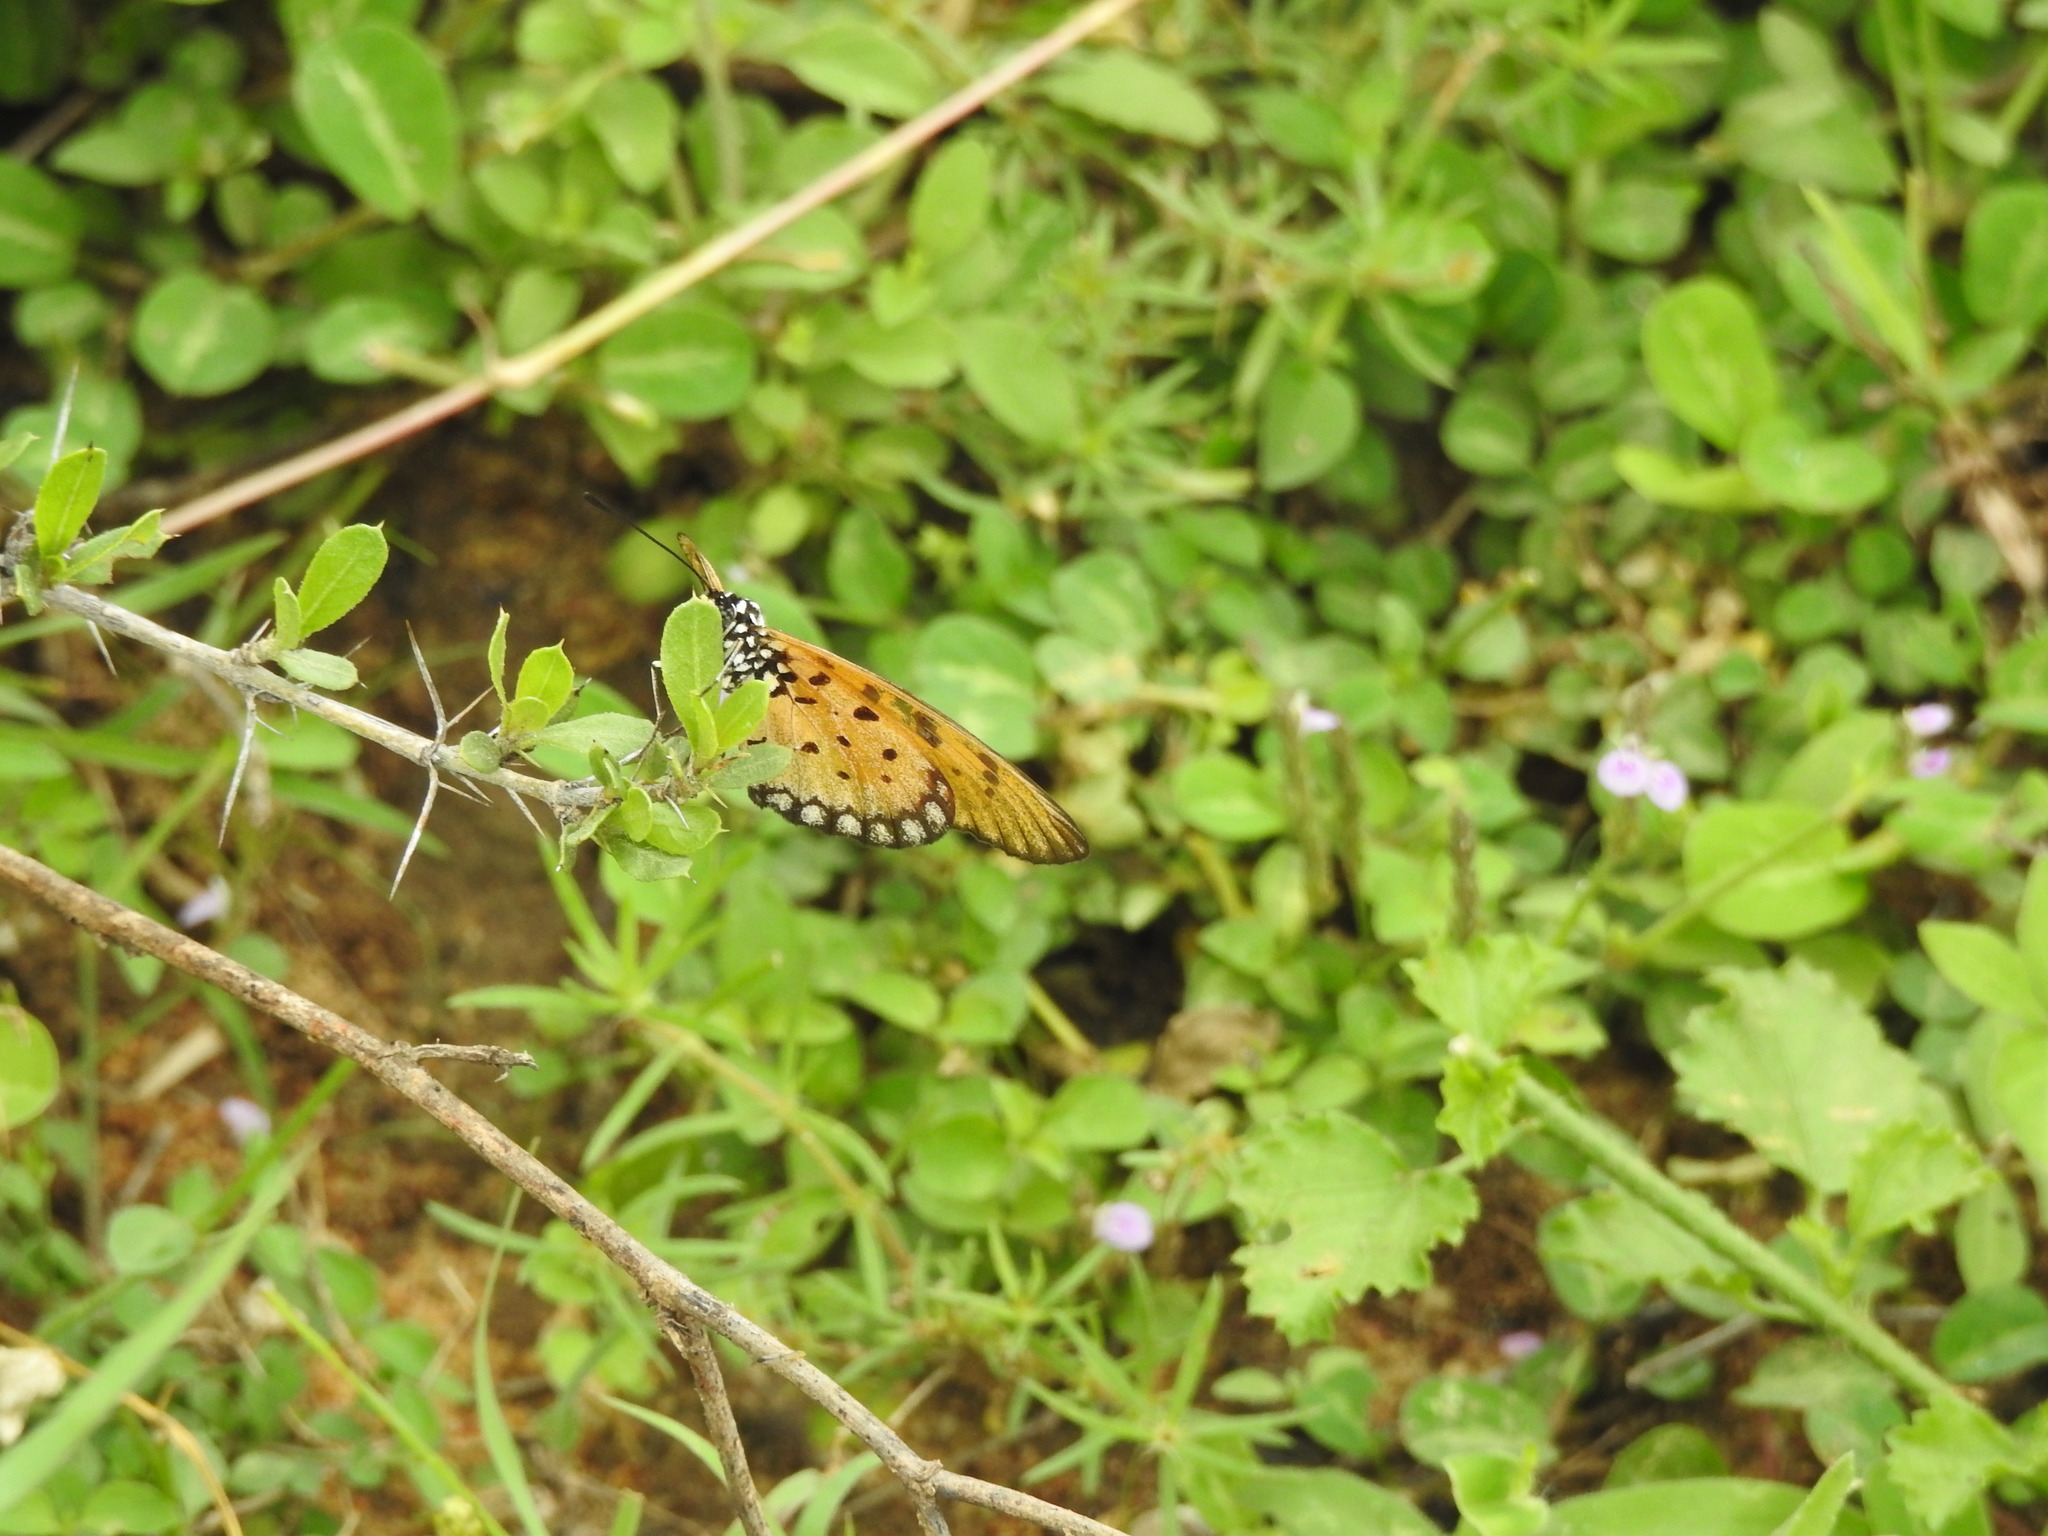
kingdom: Animalia
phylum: Arthropoda
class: Insecta
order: Lepidoptera
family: Nymphalidae
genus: Acraea
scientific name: Acraea terpsicore
